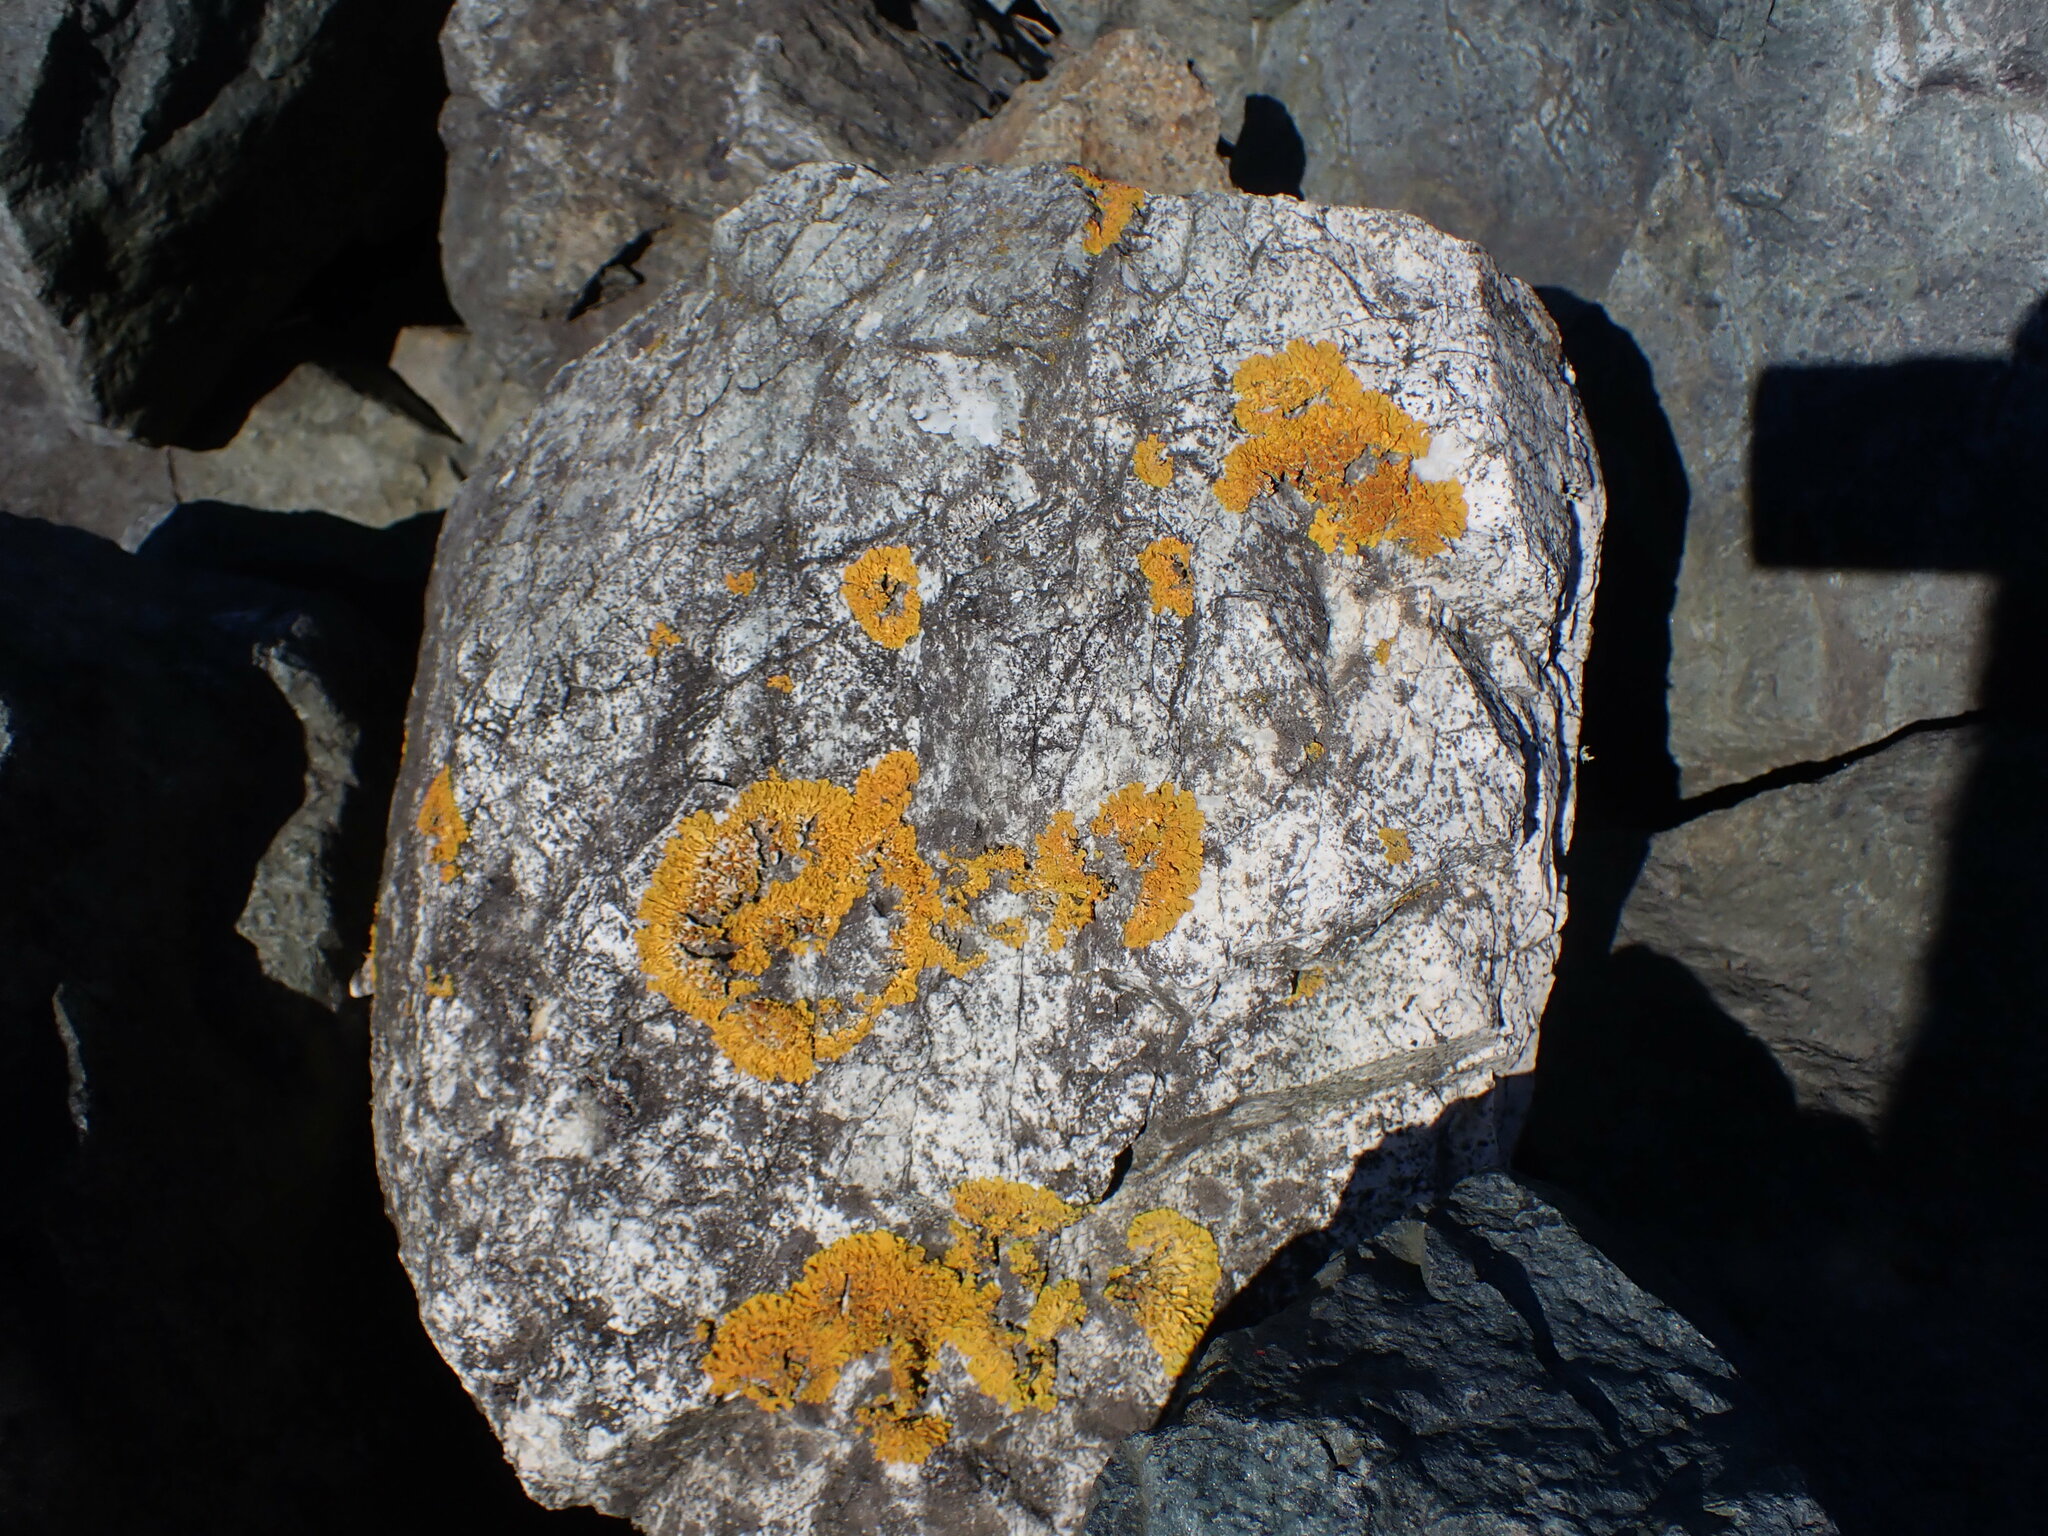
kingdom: Fungi
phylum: Ascomycota
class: Lecanoromycetes
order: Teloschistales
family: Teloschistaceae
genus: Xanthoria
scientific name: Xanthoria parietina
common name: Common orange lichen
